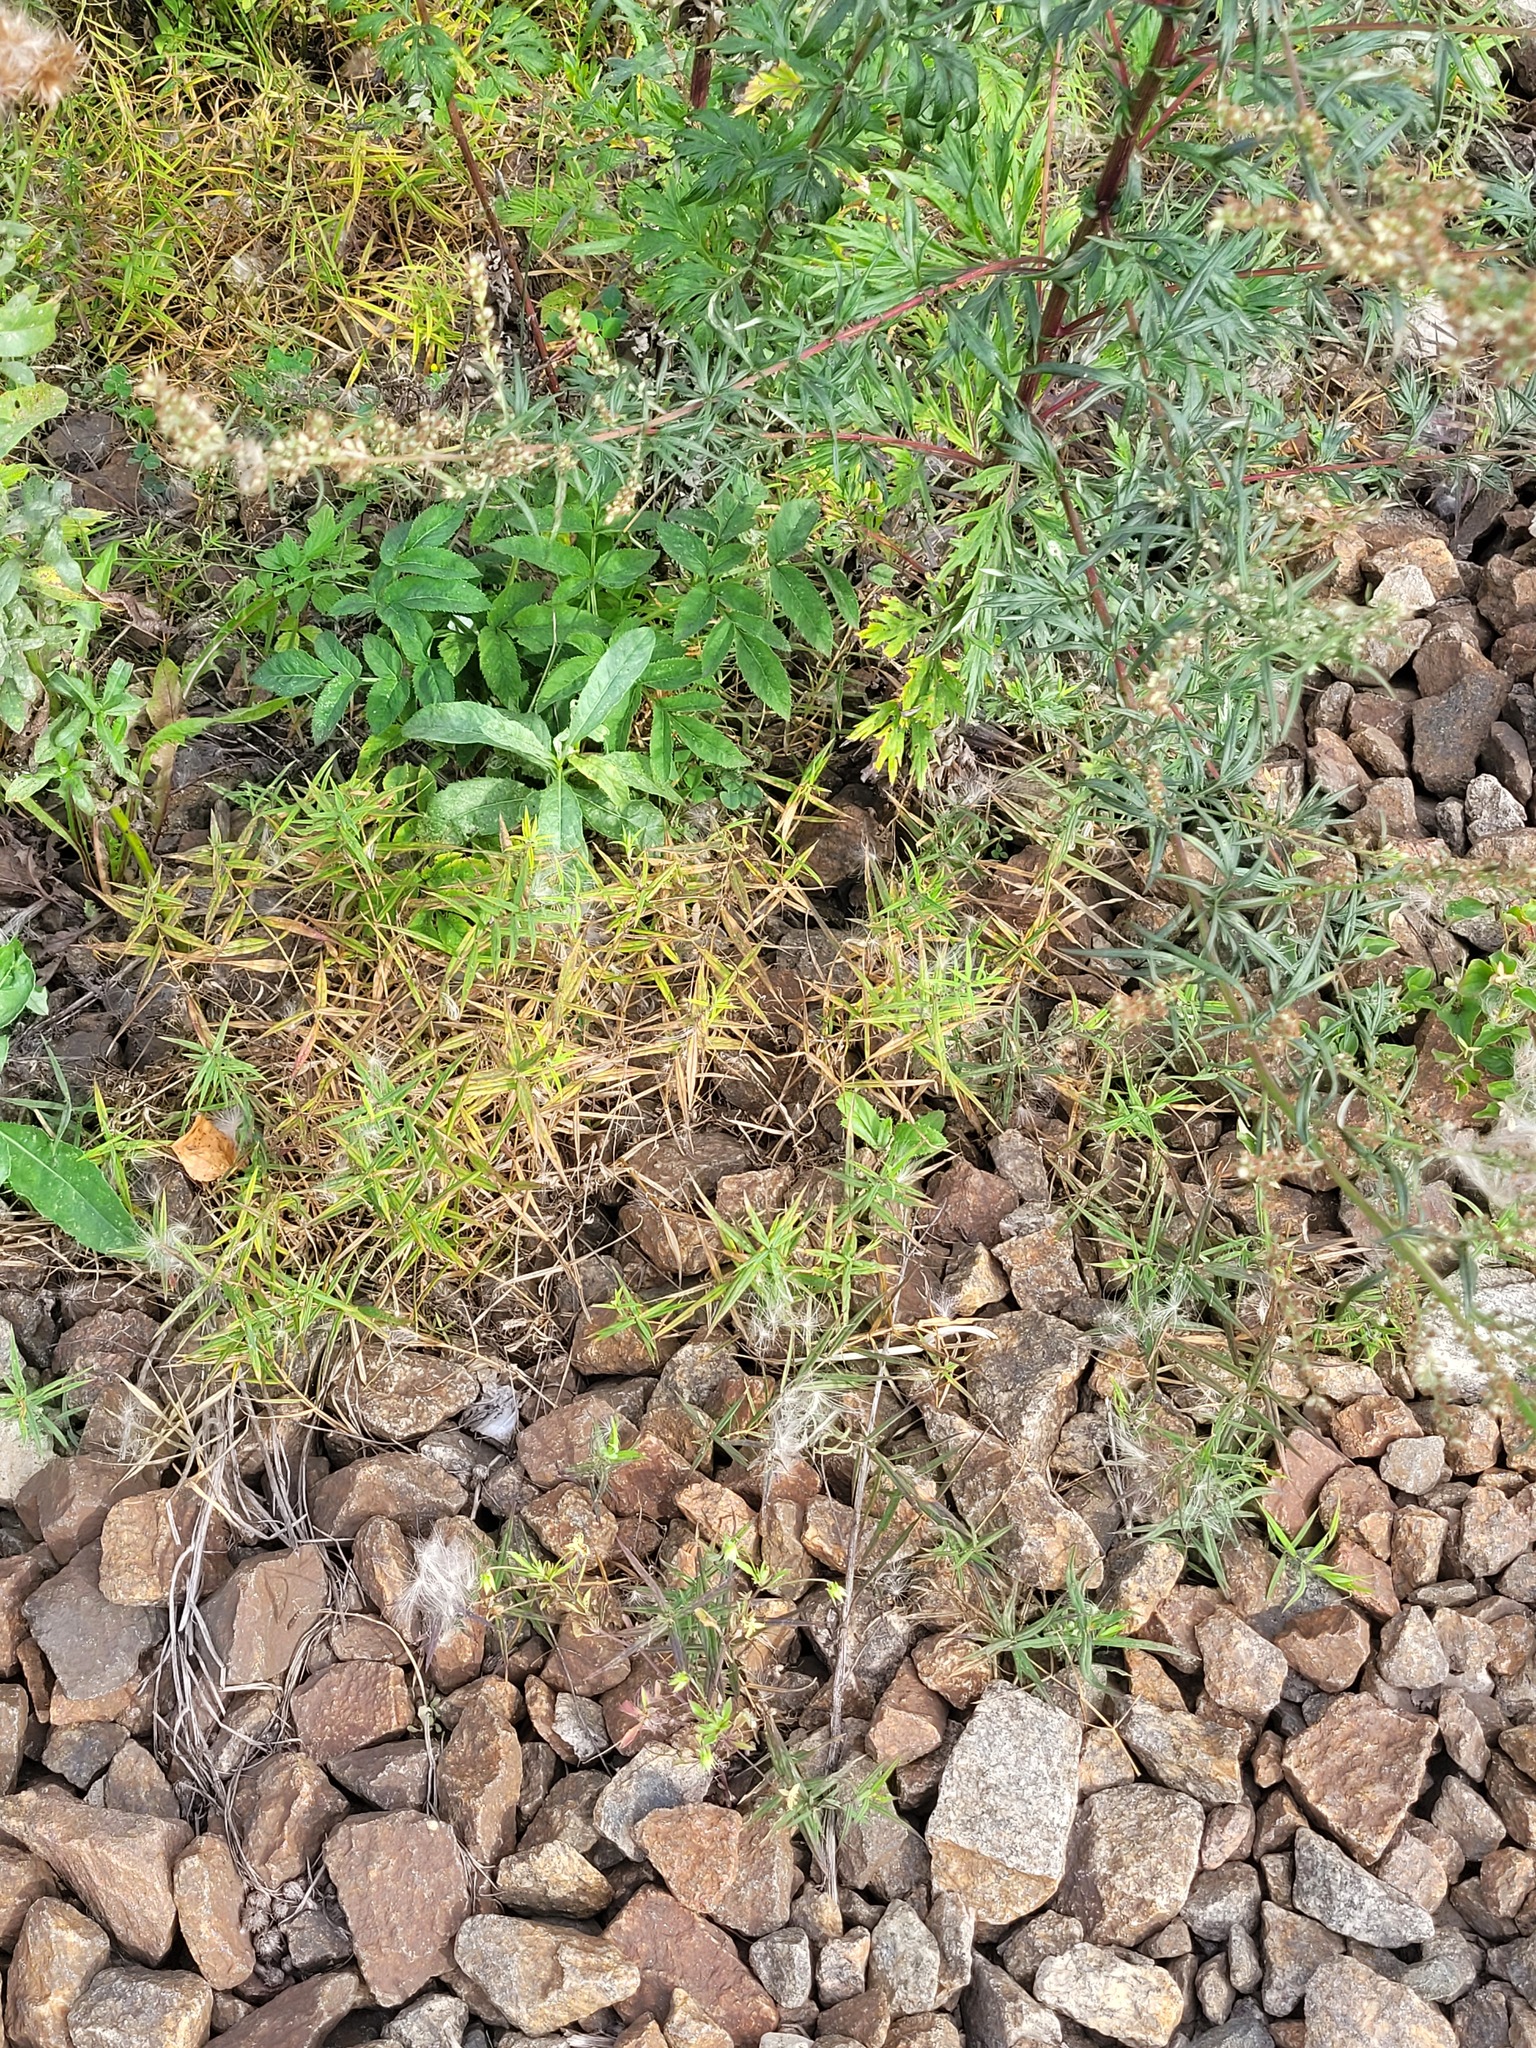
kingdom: Plantae
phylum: Tracheophyta
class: Magnoliopsida
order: Caryophyllales
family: Caryophyllaceae
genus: Rabelera
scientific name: Rabelera holostea
